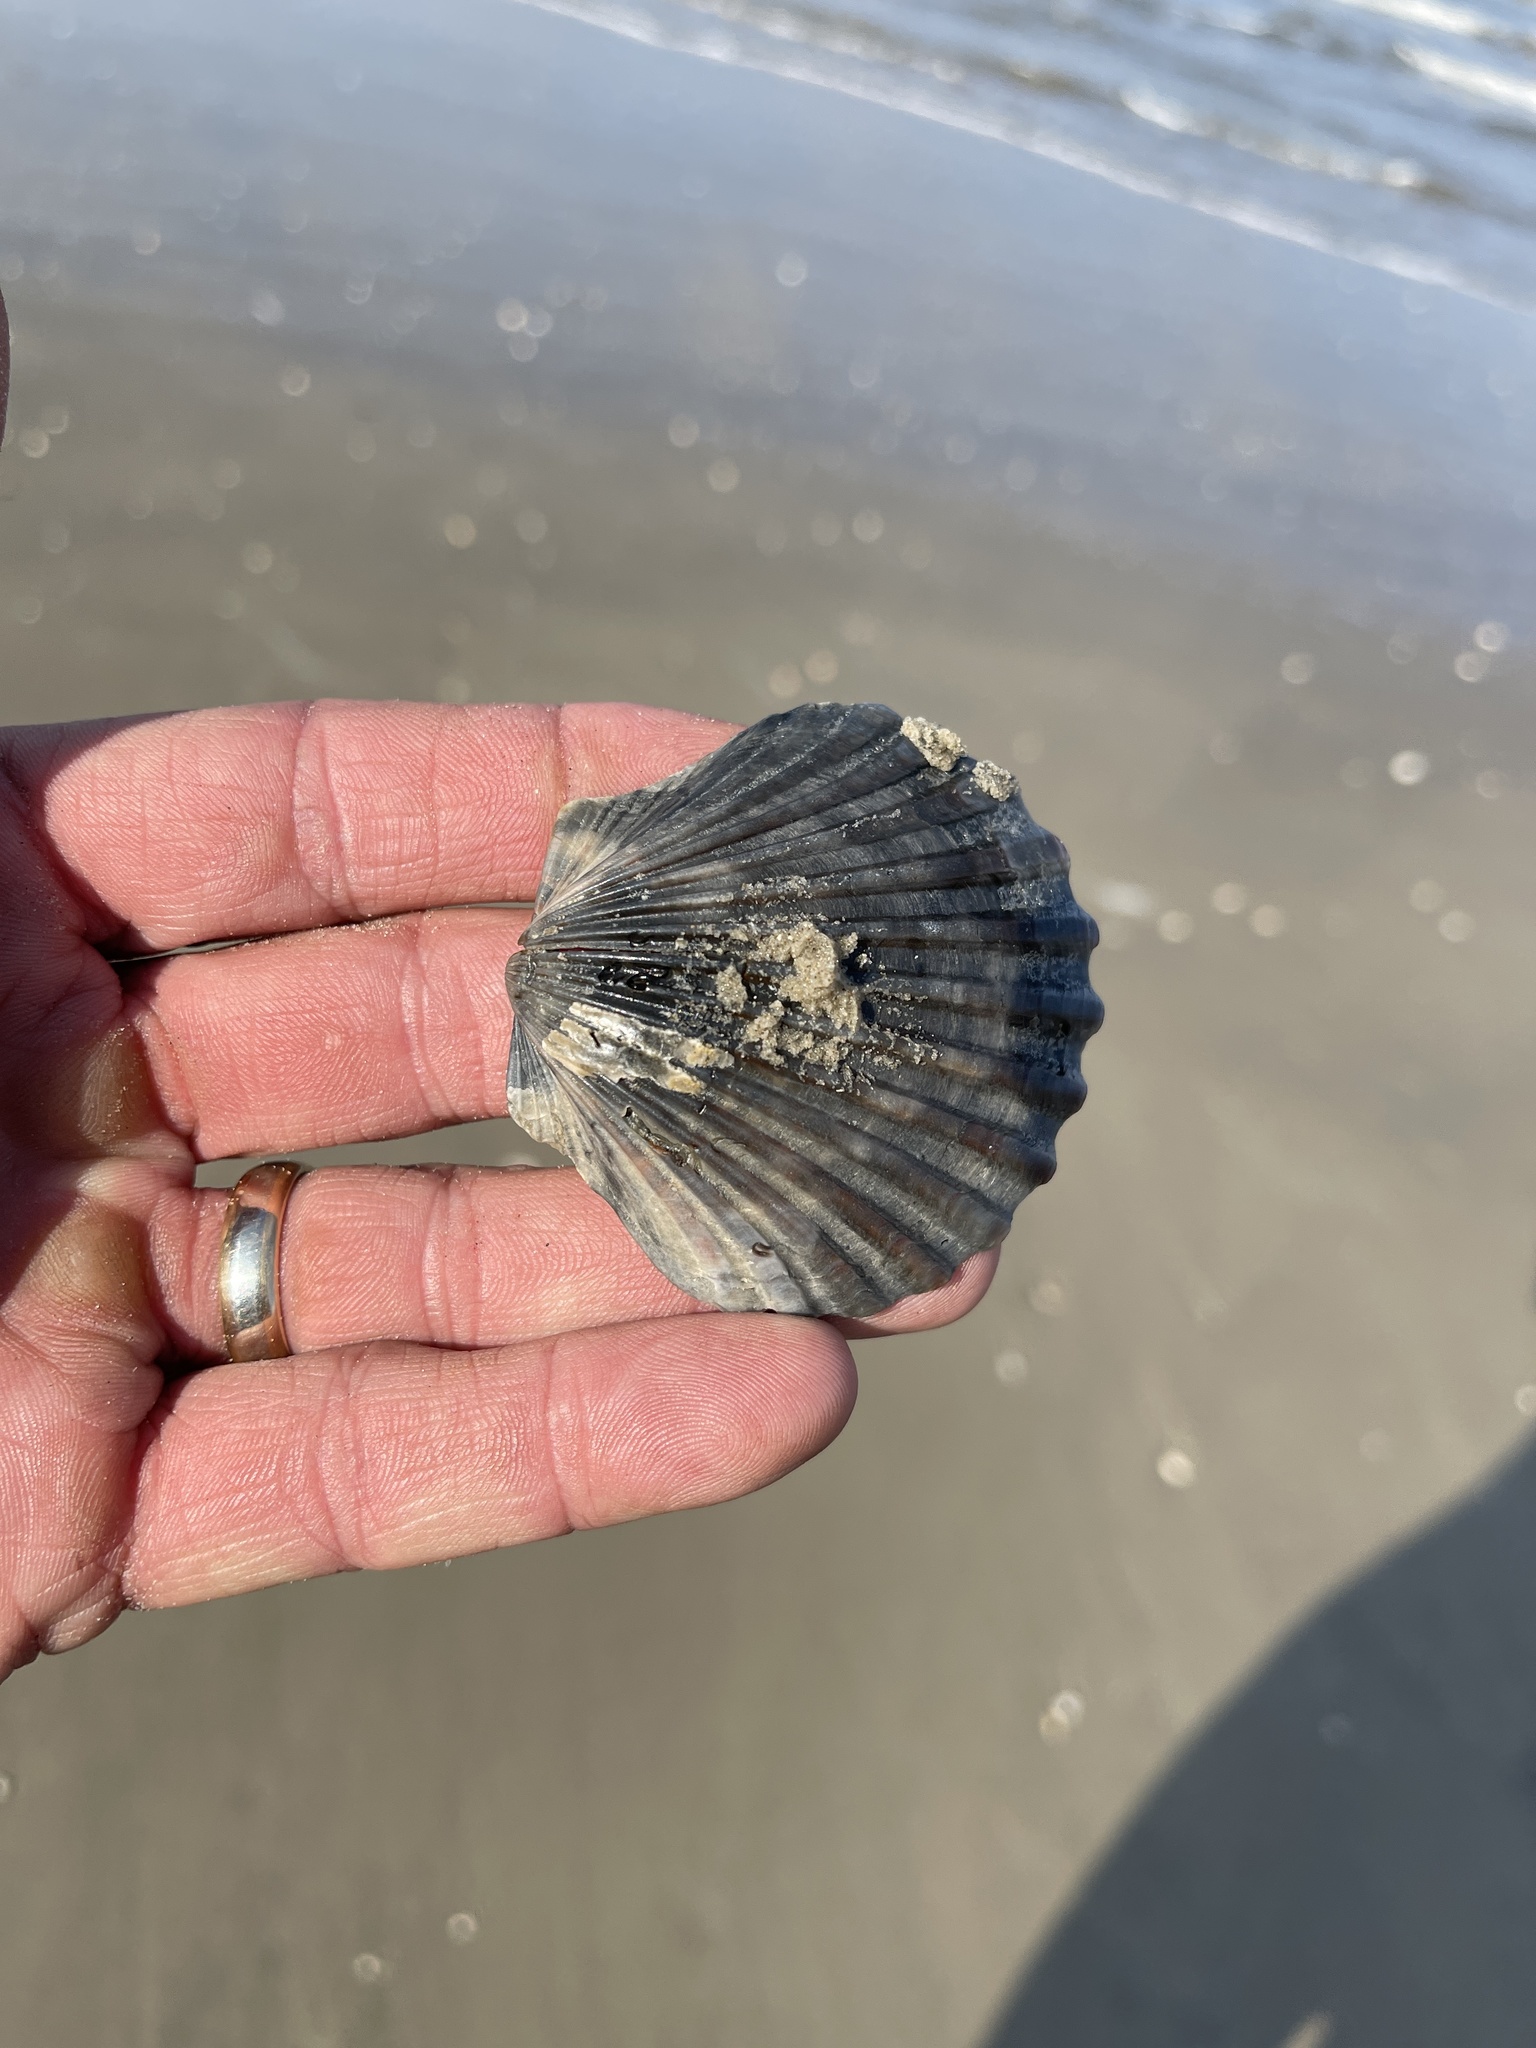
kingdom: Animalia
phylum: Mollusca
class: Bivalvia
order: Pectinida
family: Pectinidae
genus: Argopecten
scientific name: Argopecten irradians
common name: Atlantic bay scallop
